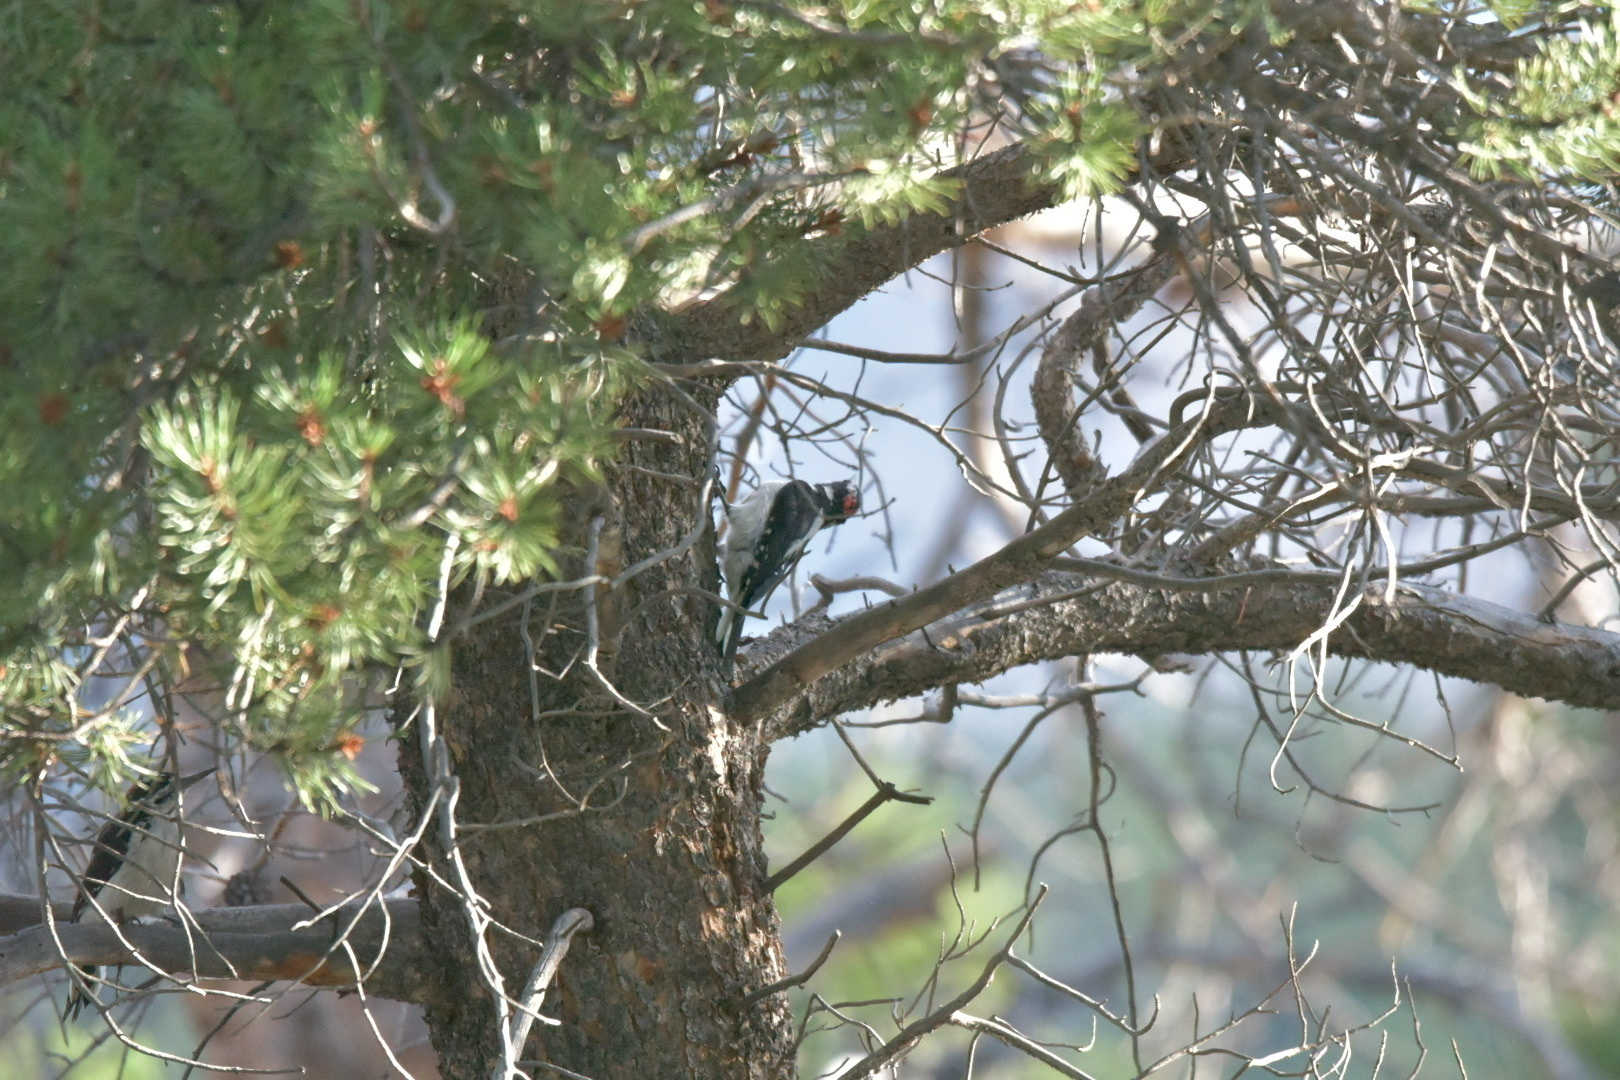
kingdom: Animalia
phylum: Chordata
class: Aves
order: Piciformes
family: Picidae
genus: Leuconotopicus
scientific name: Leuconotopicus villosus
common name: Hairy woodpecker
